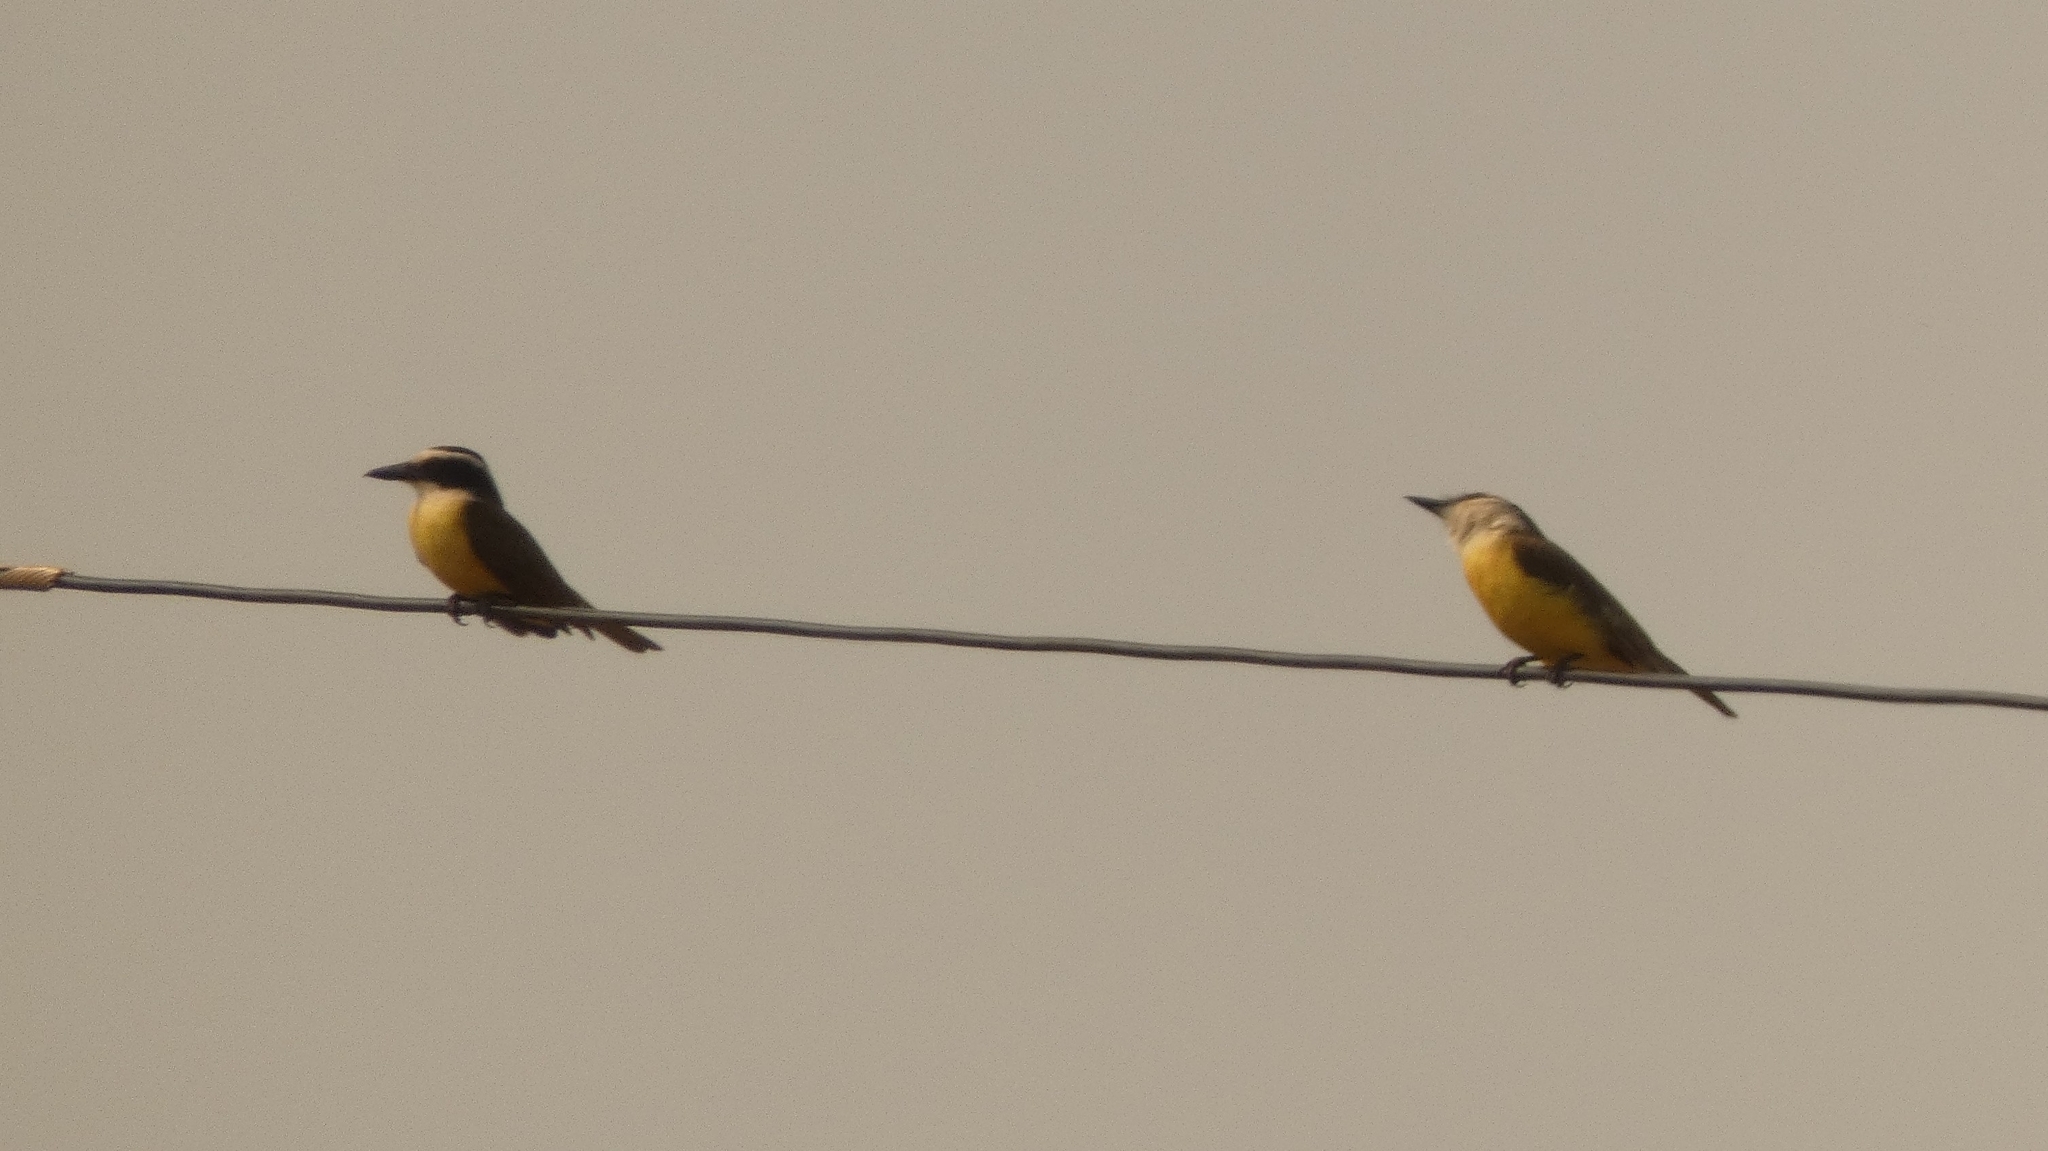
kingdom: Animalia
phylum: Chordata
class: Aves
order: Passeriformes
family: Tyrannidae
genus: Tyrannus
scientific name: Tyrannus albogularis
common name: White-throated kingbird
